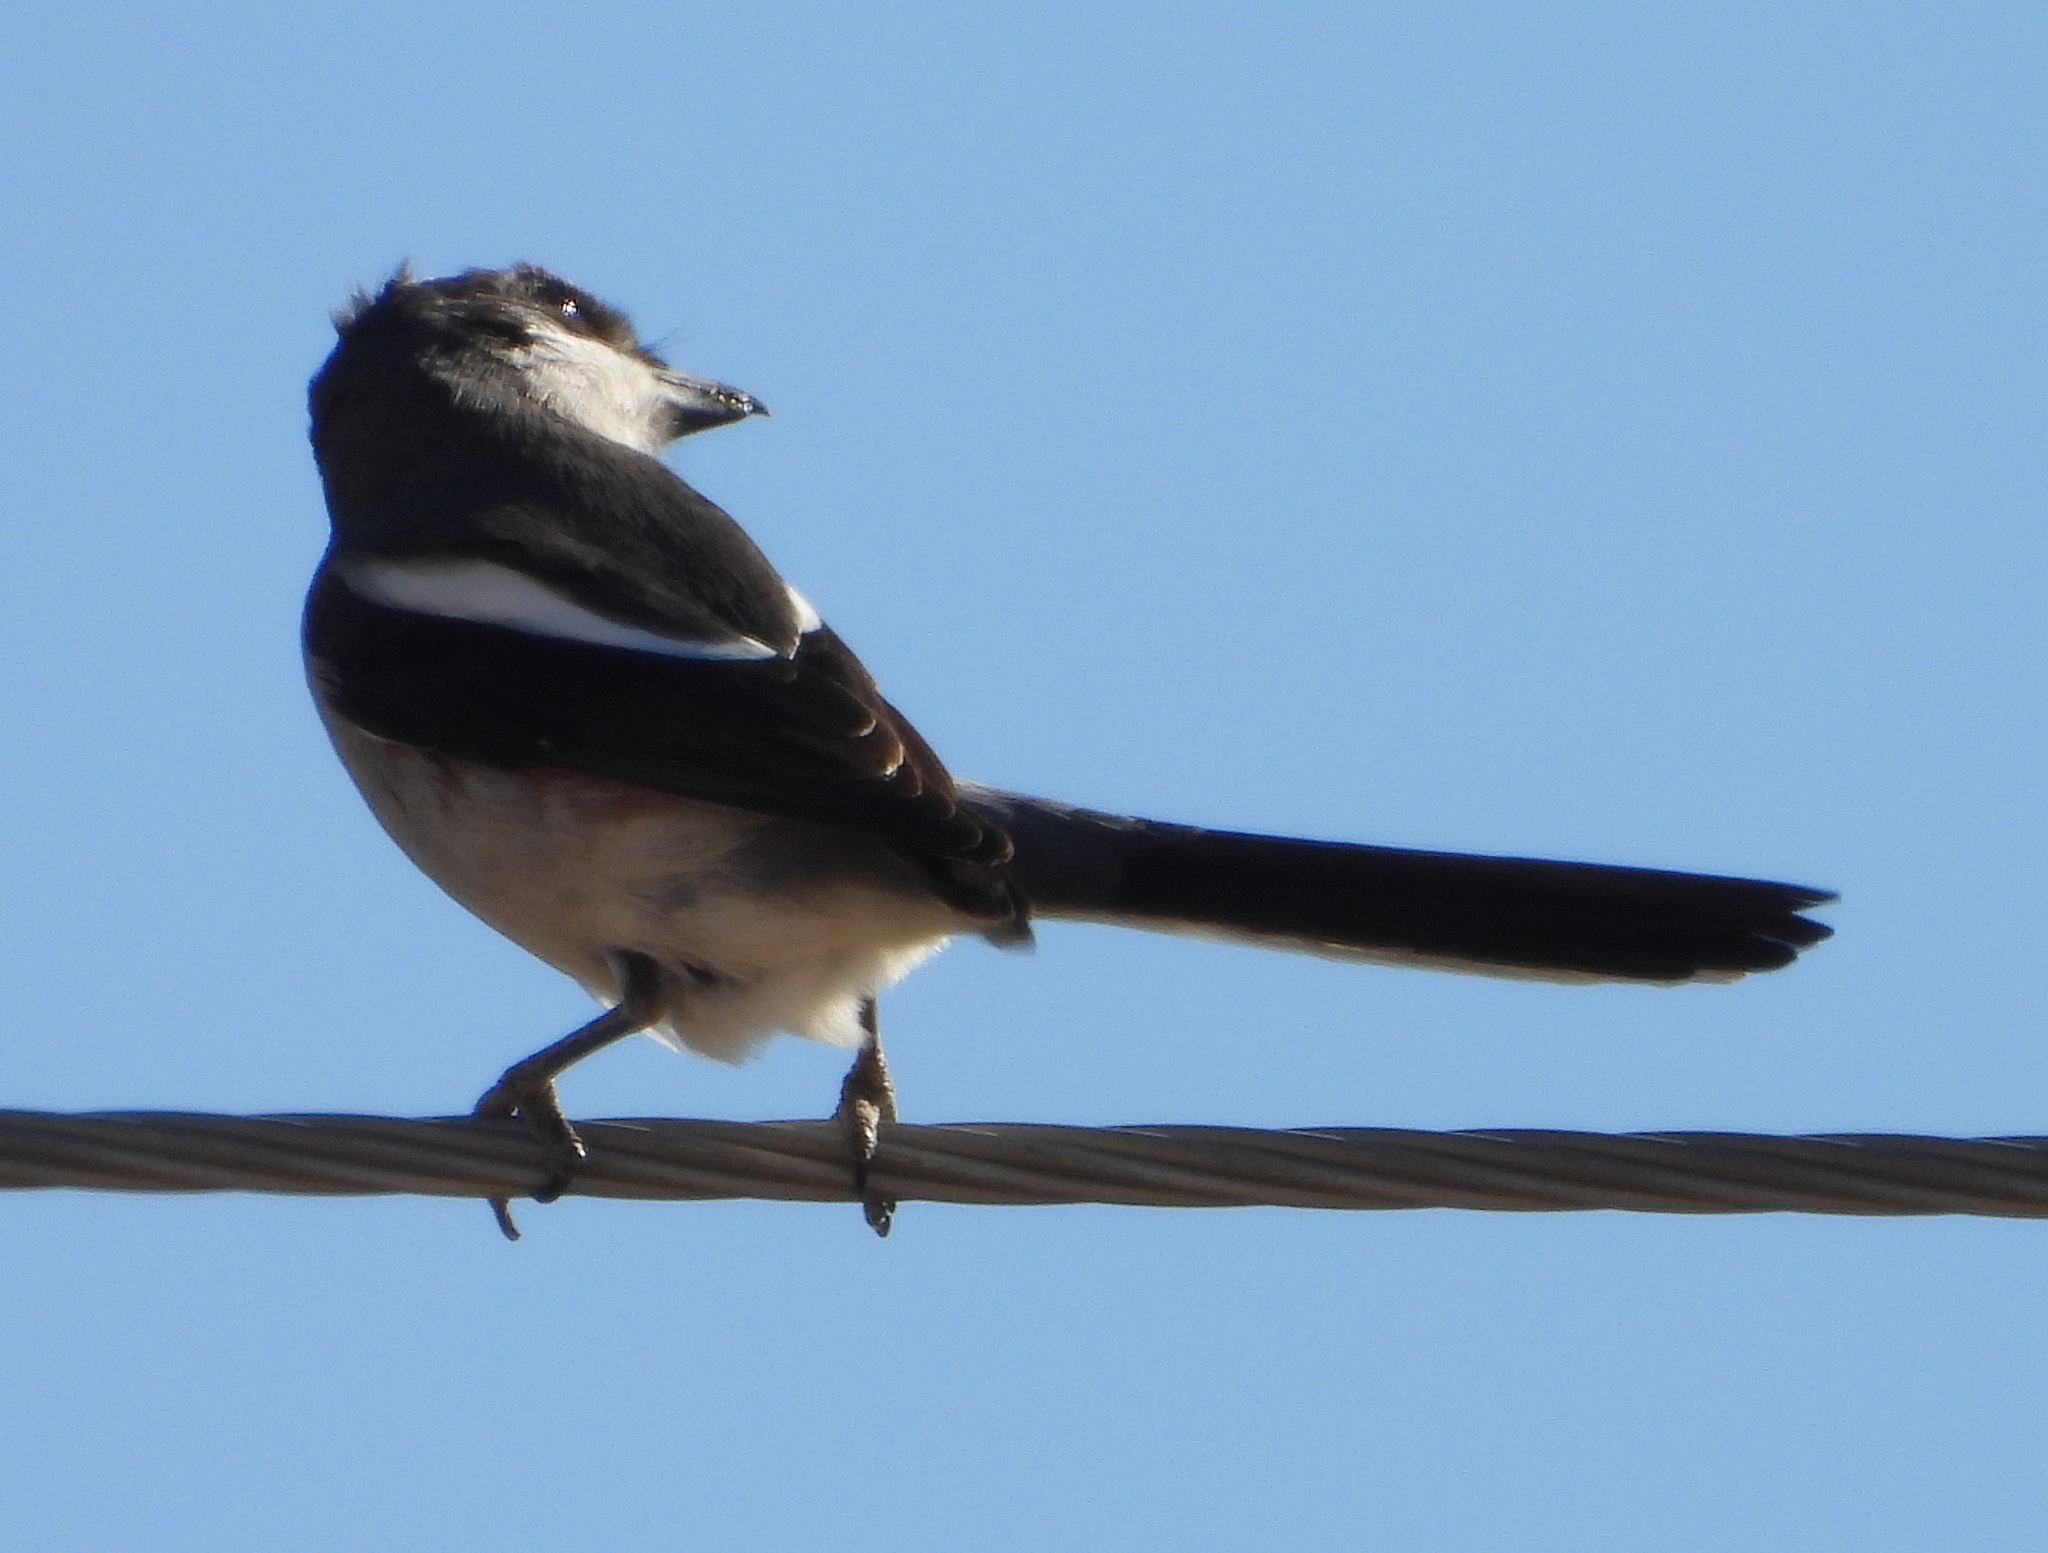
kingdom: Animalia
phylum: Chordata
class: Aves
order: Passeriformes
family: Laniidae
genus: Lanius
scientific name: Lanius collaris
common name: Southern fiscal
